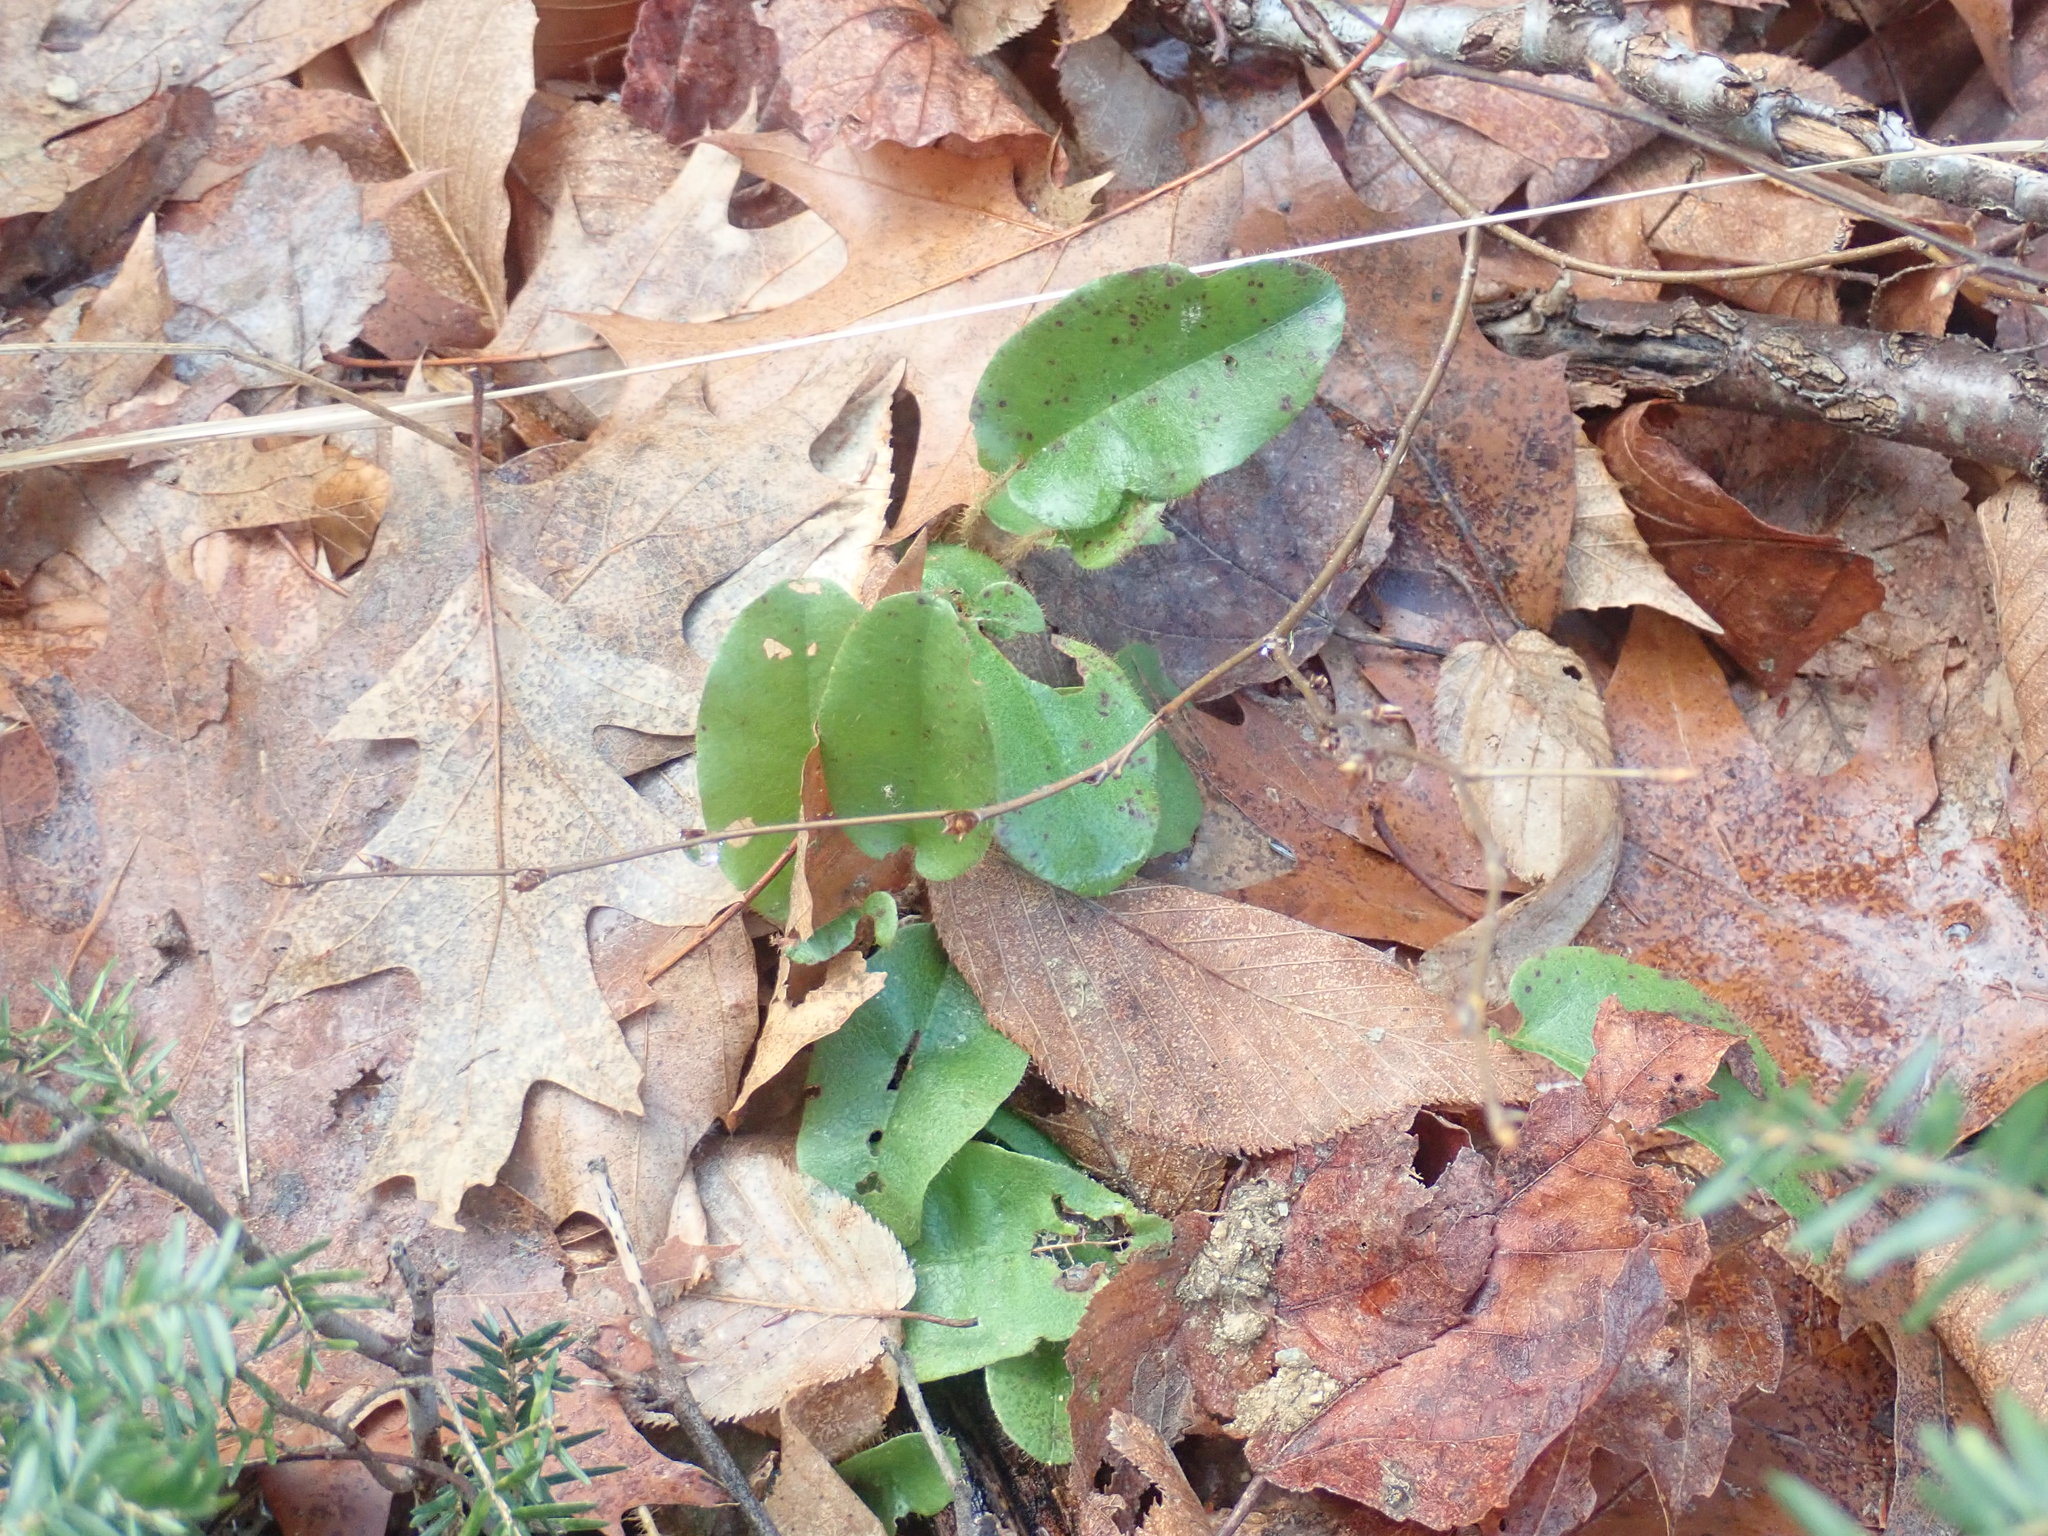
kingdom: Plantae
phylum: Tracheophyta
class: Magnoliopsida
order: Ericales
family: Ericaceae
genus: Epigaea
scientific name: Epigaea repens
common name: Gravelroot
